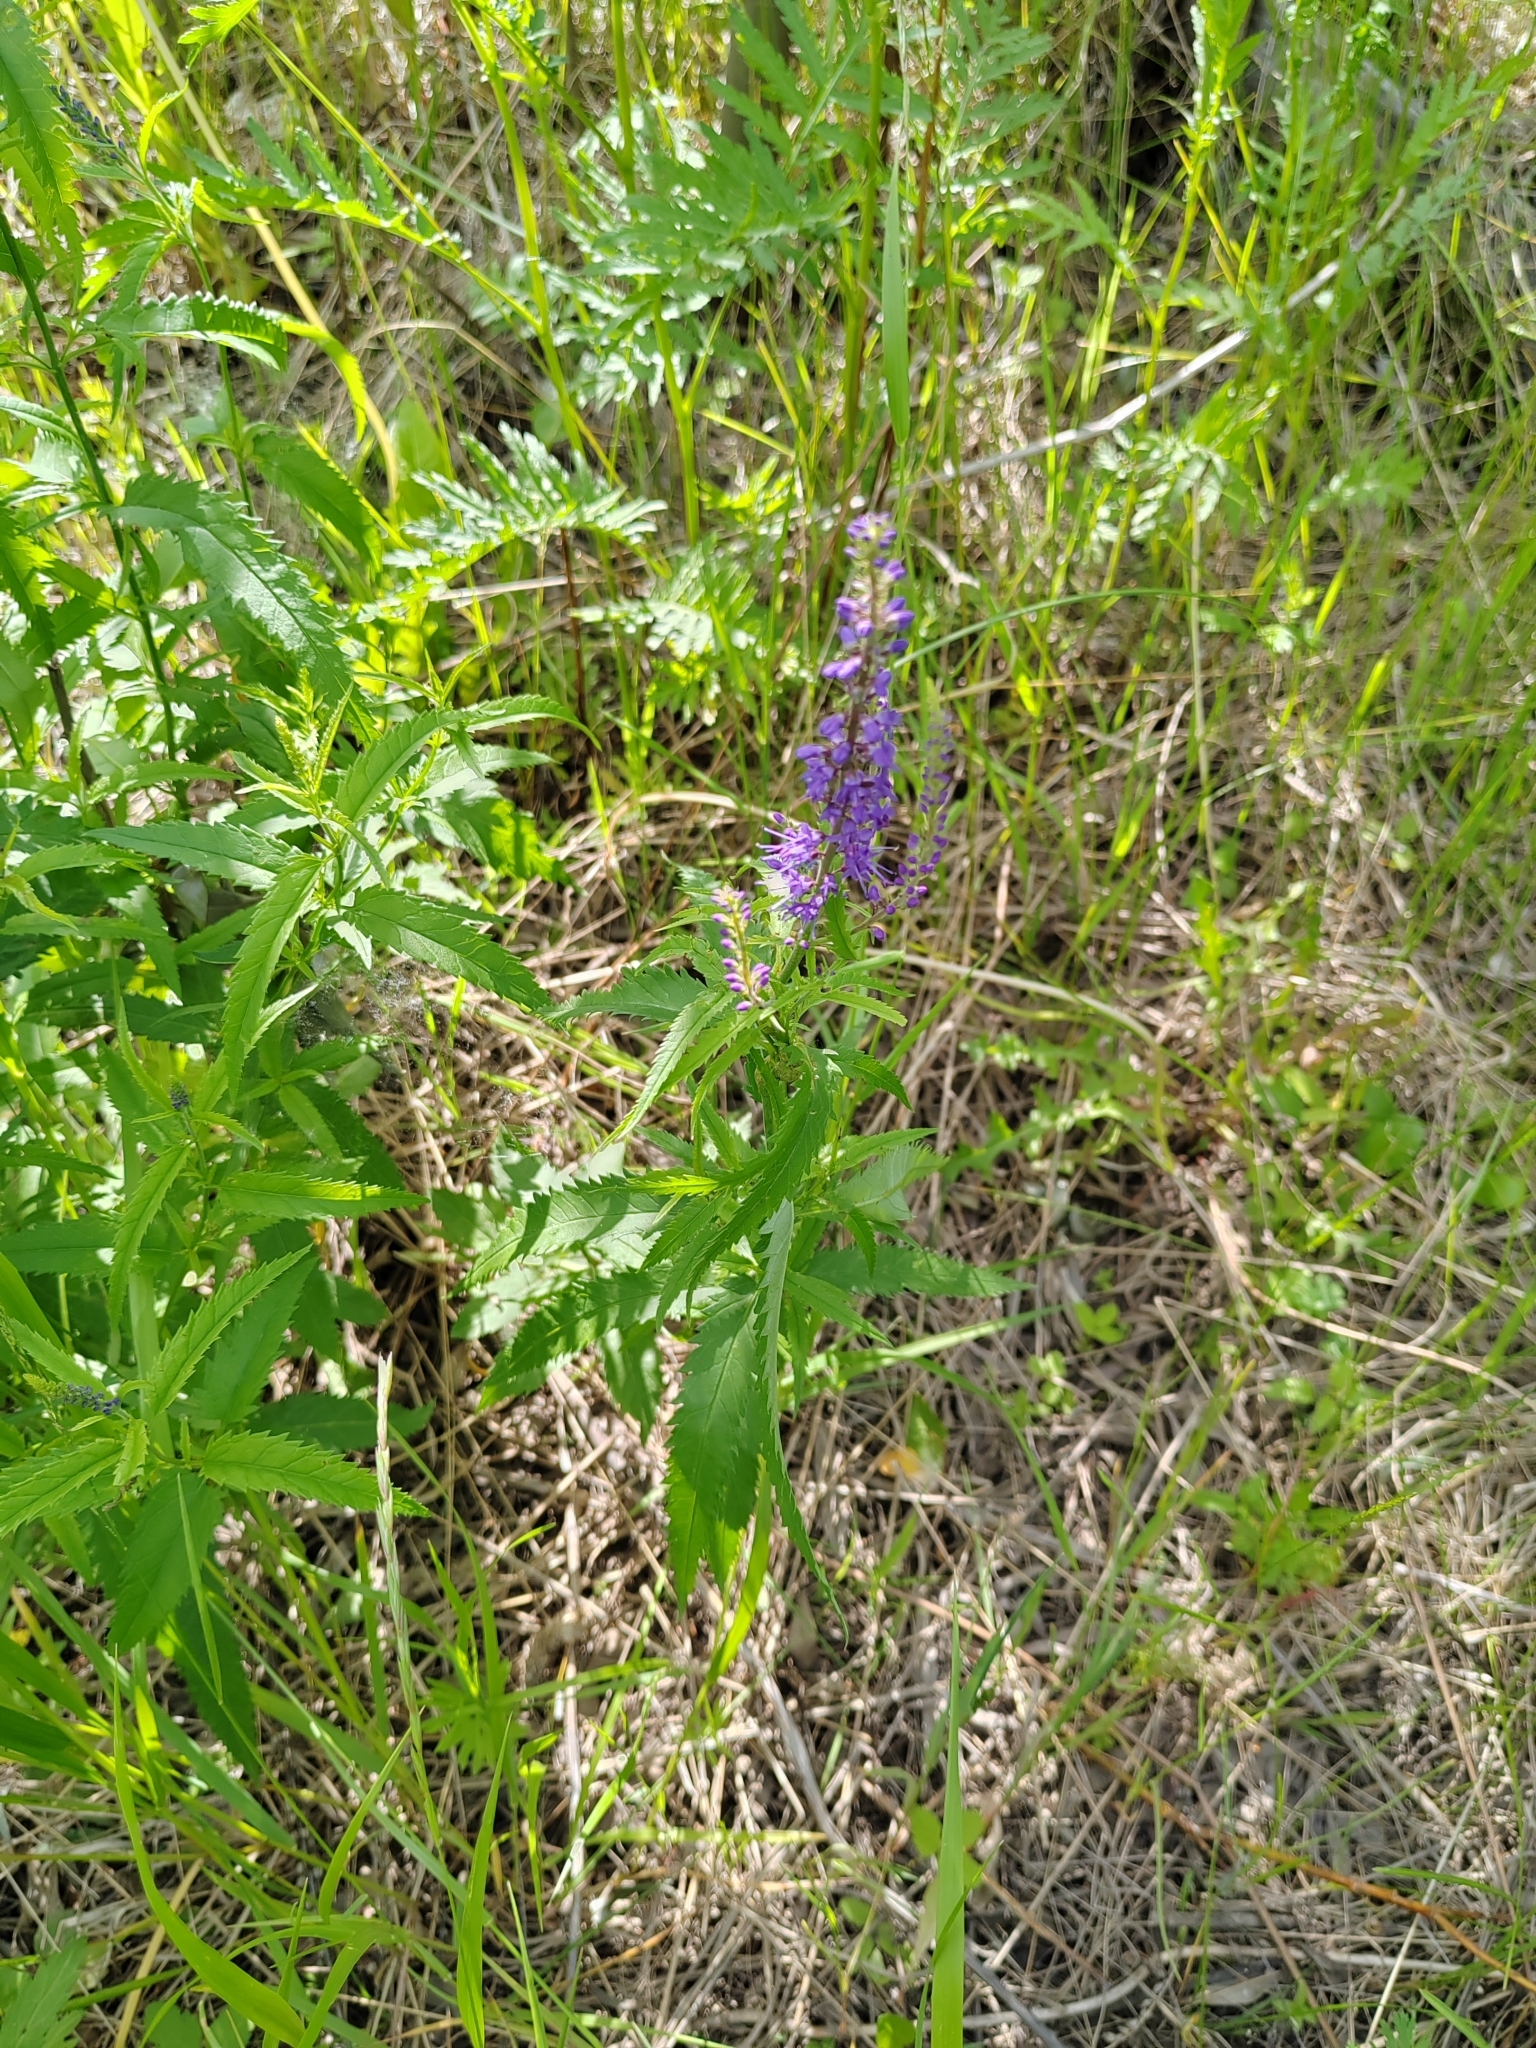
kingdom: Plantae
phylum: Tracheophyta
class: Magnoliopsida
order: Lamiales
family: Plantaginaceae
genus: Veronica
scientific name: Veronica longifolia
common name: Garden speedwell
